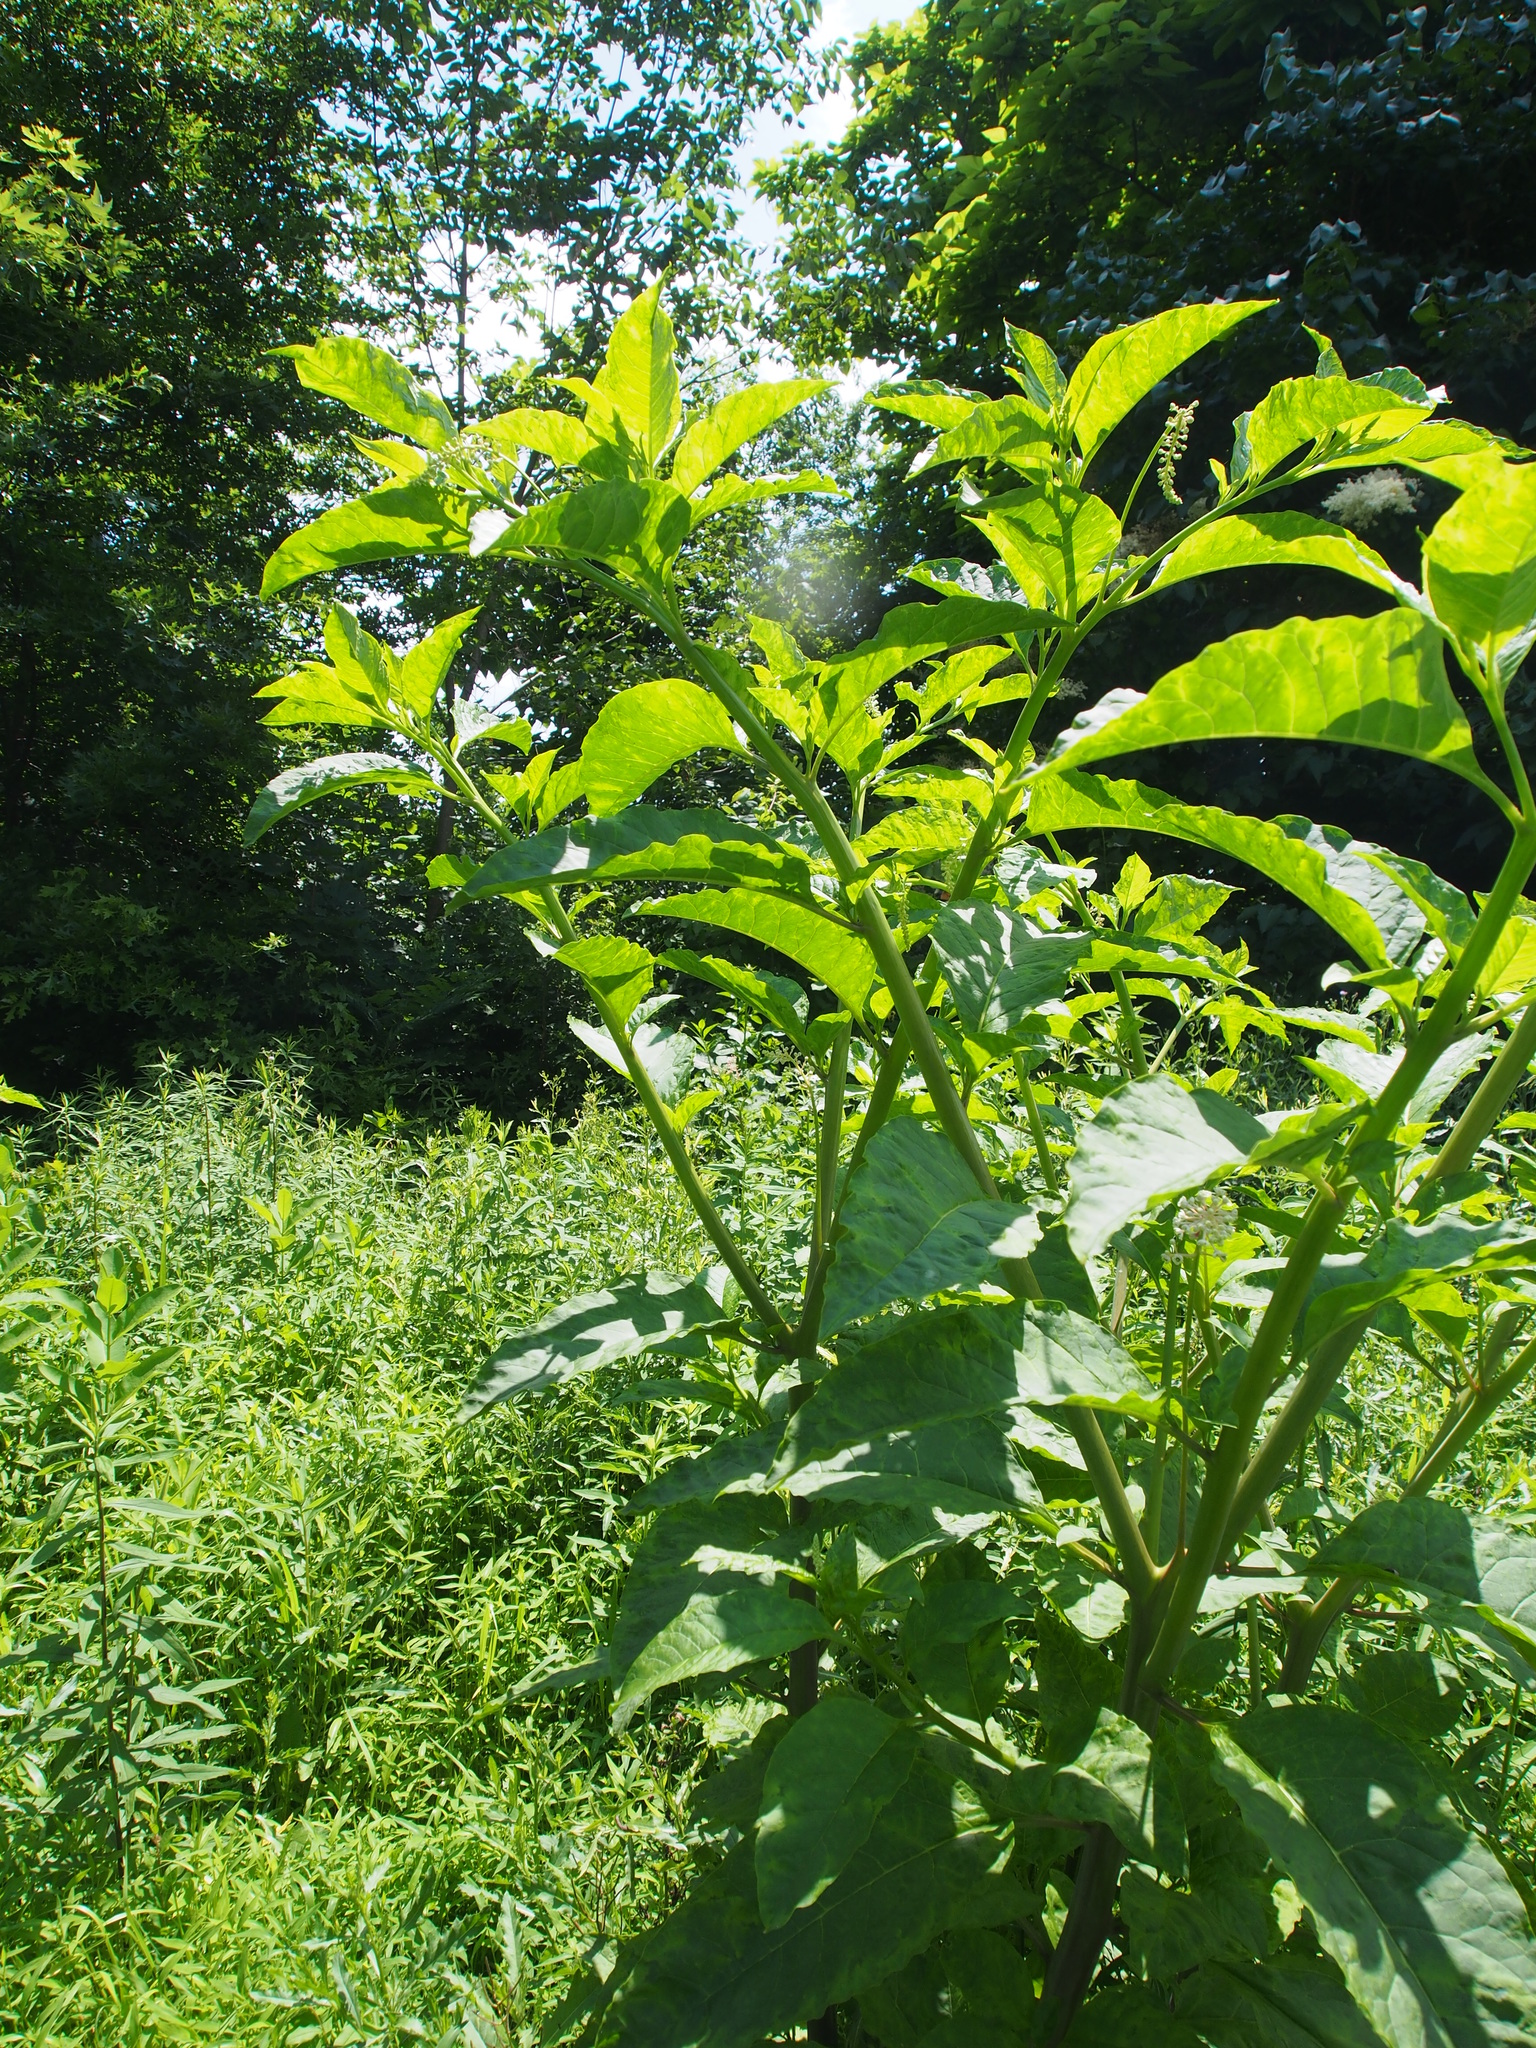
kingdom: Plantae
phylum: Tracheophyta
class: Magnoliopsida
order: Caryophyllales
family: Phytolaccaceae
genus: Phytolacca
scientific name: Phytolacca americana
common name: American pokeweed
